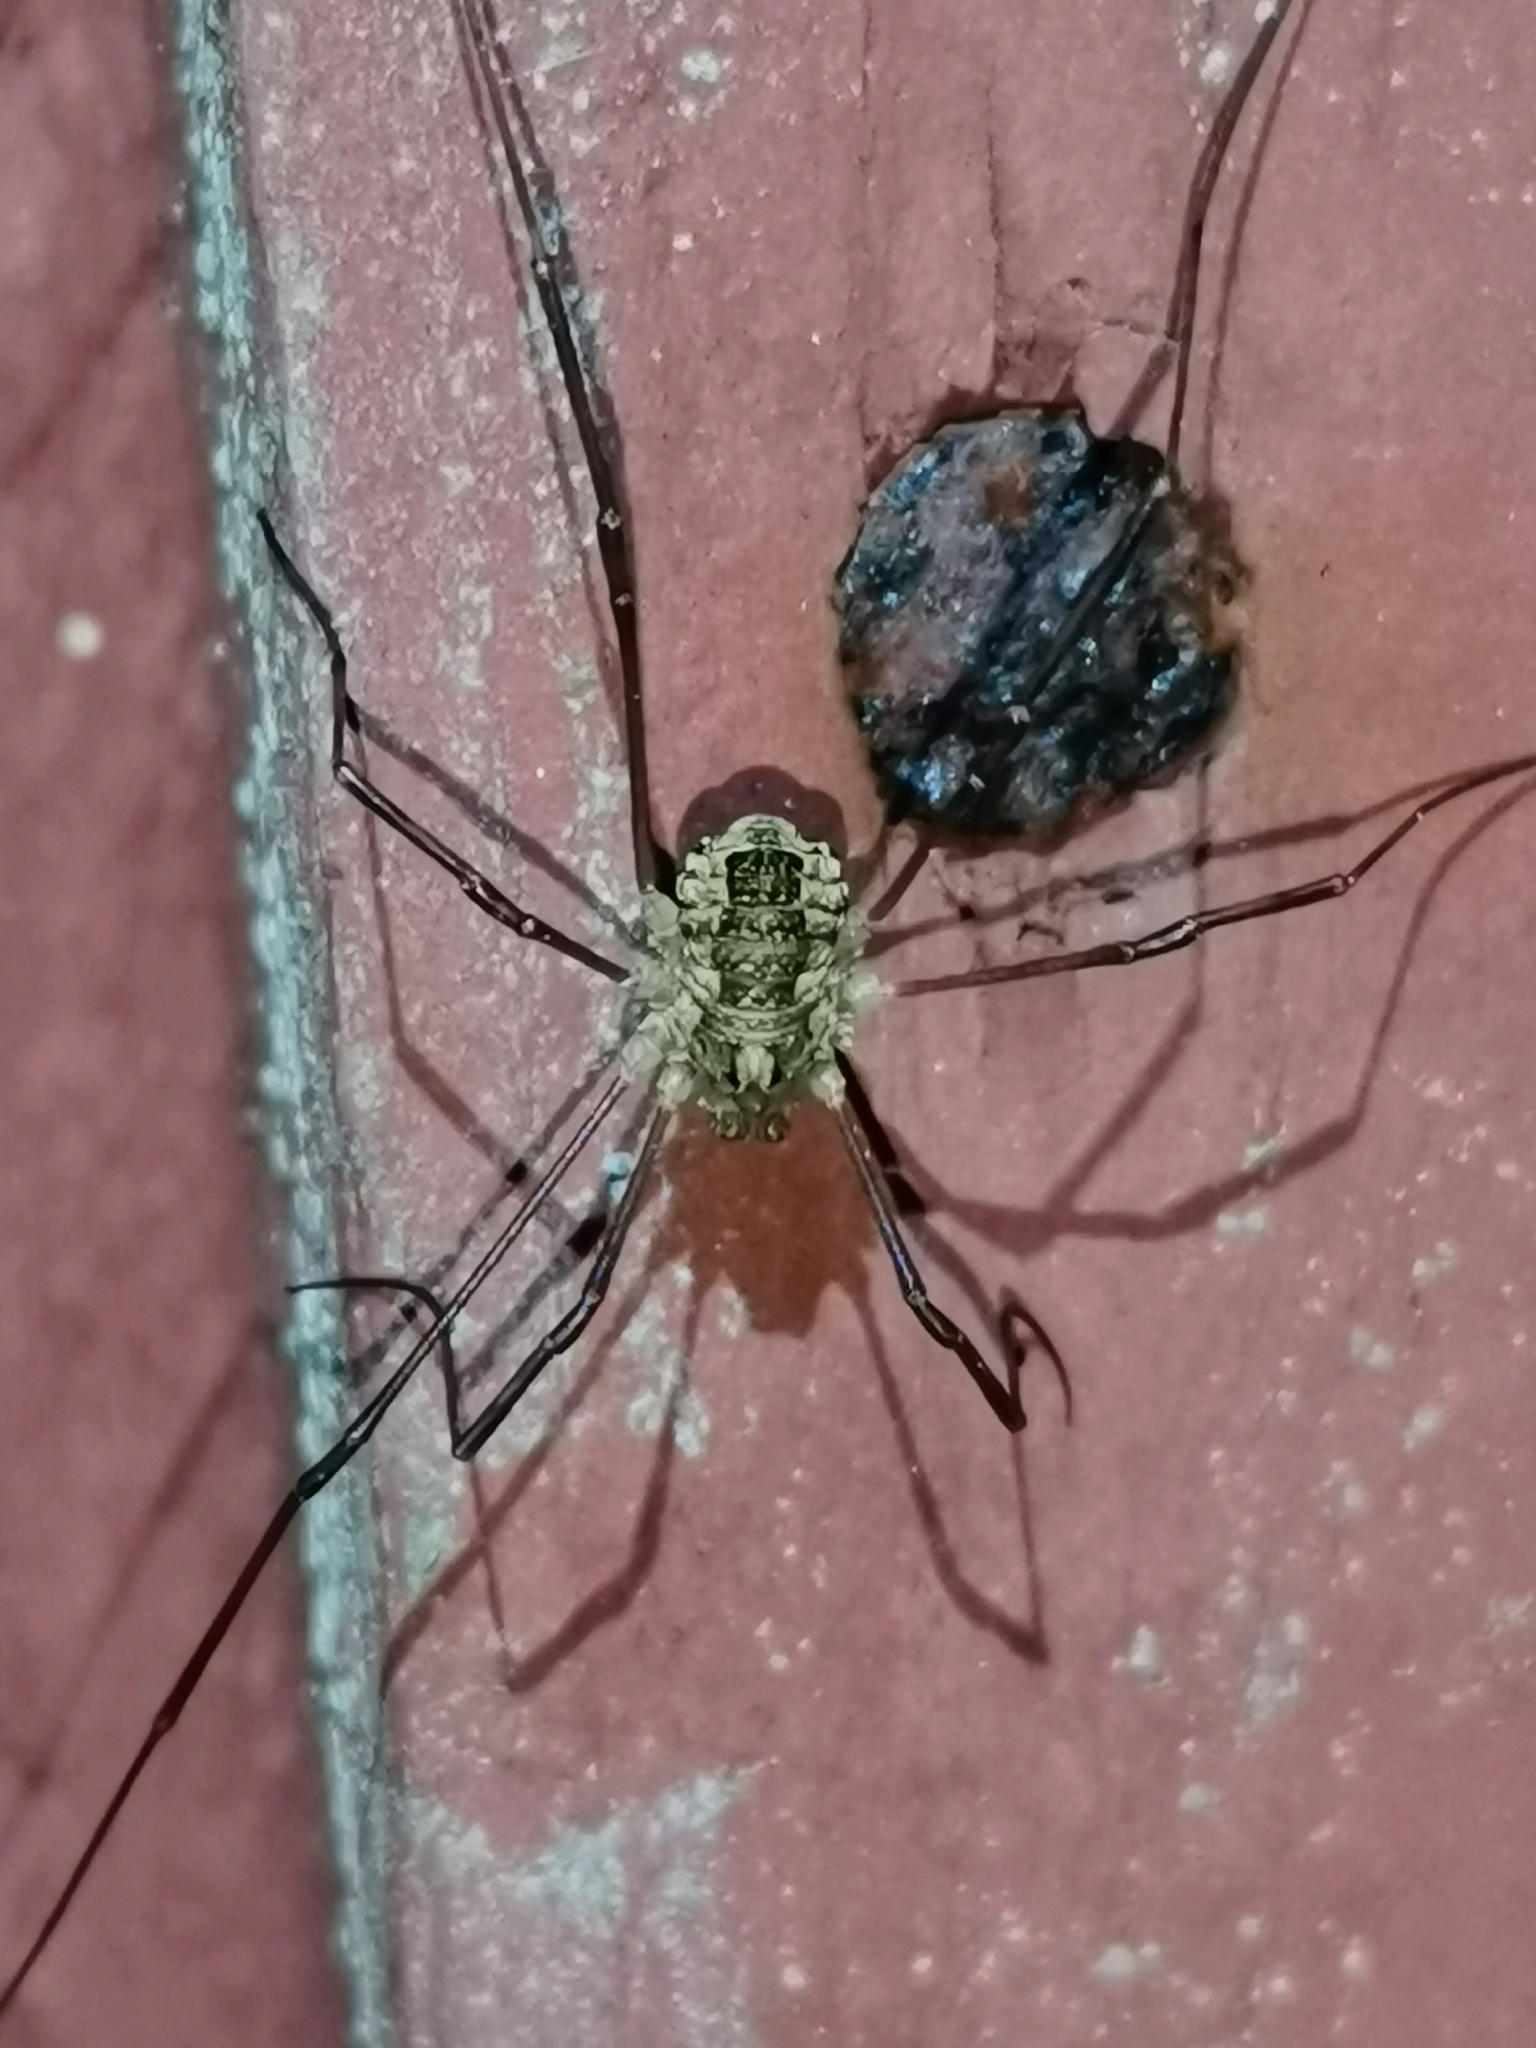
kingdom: Animalia
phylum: Arthropoda
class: Arachnida
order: Opiliones
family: Phalangiidae
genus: Rilaena
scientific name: Rilaena triangularis
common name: Spring harvestman
